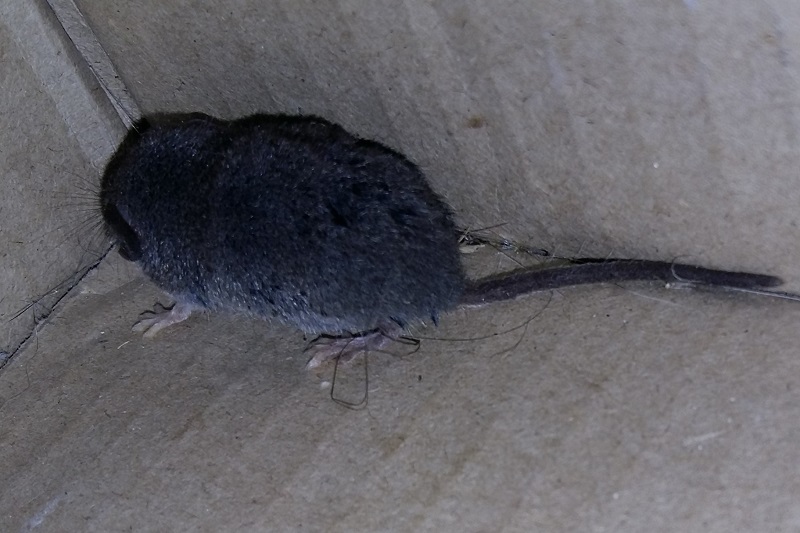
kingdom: Animalia
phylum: Chordata
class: Mammalia
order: Soricomorpha
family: Soricidae
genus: Myosorex
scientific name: Myosorex varius
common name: Forest shrew
